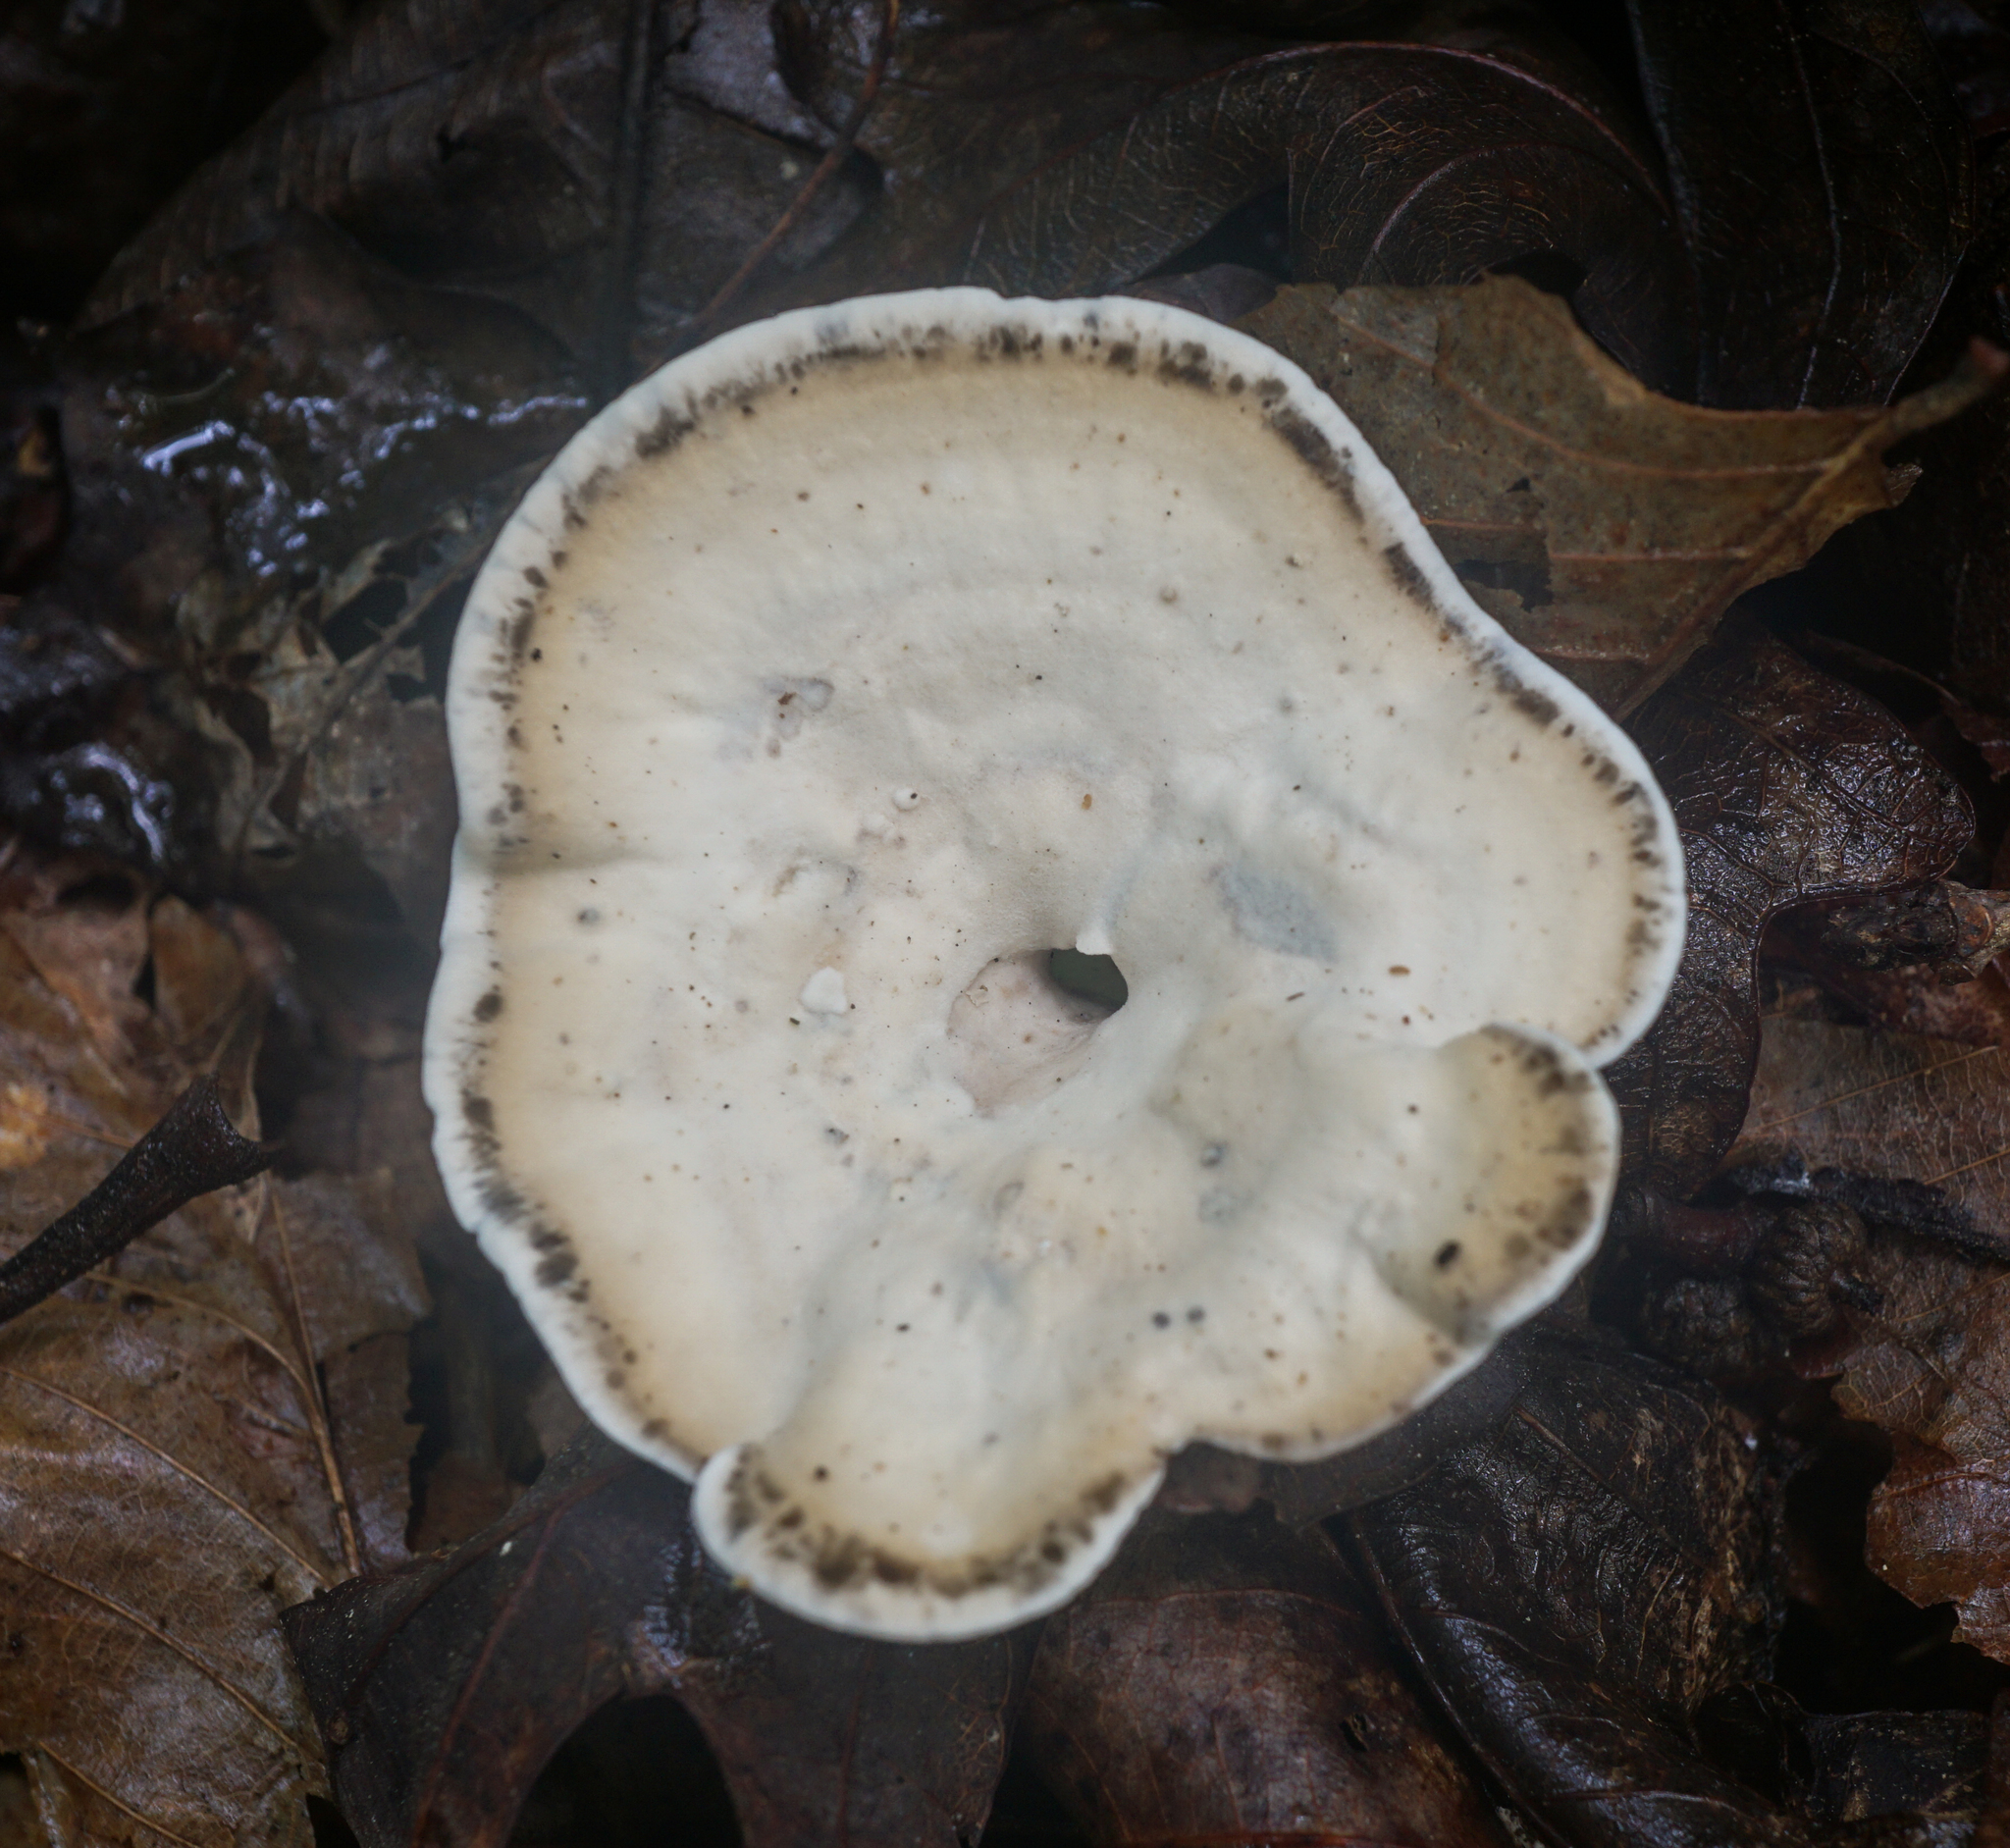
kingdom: Fungi
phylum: Basidiomycota
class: Agaricomycetes
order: Polyporales
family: Steccherinaceae
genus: Mycorrhaphium
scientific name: Mycorrhaphium adustum
